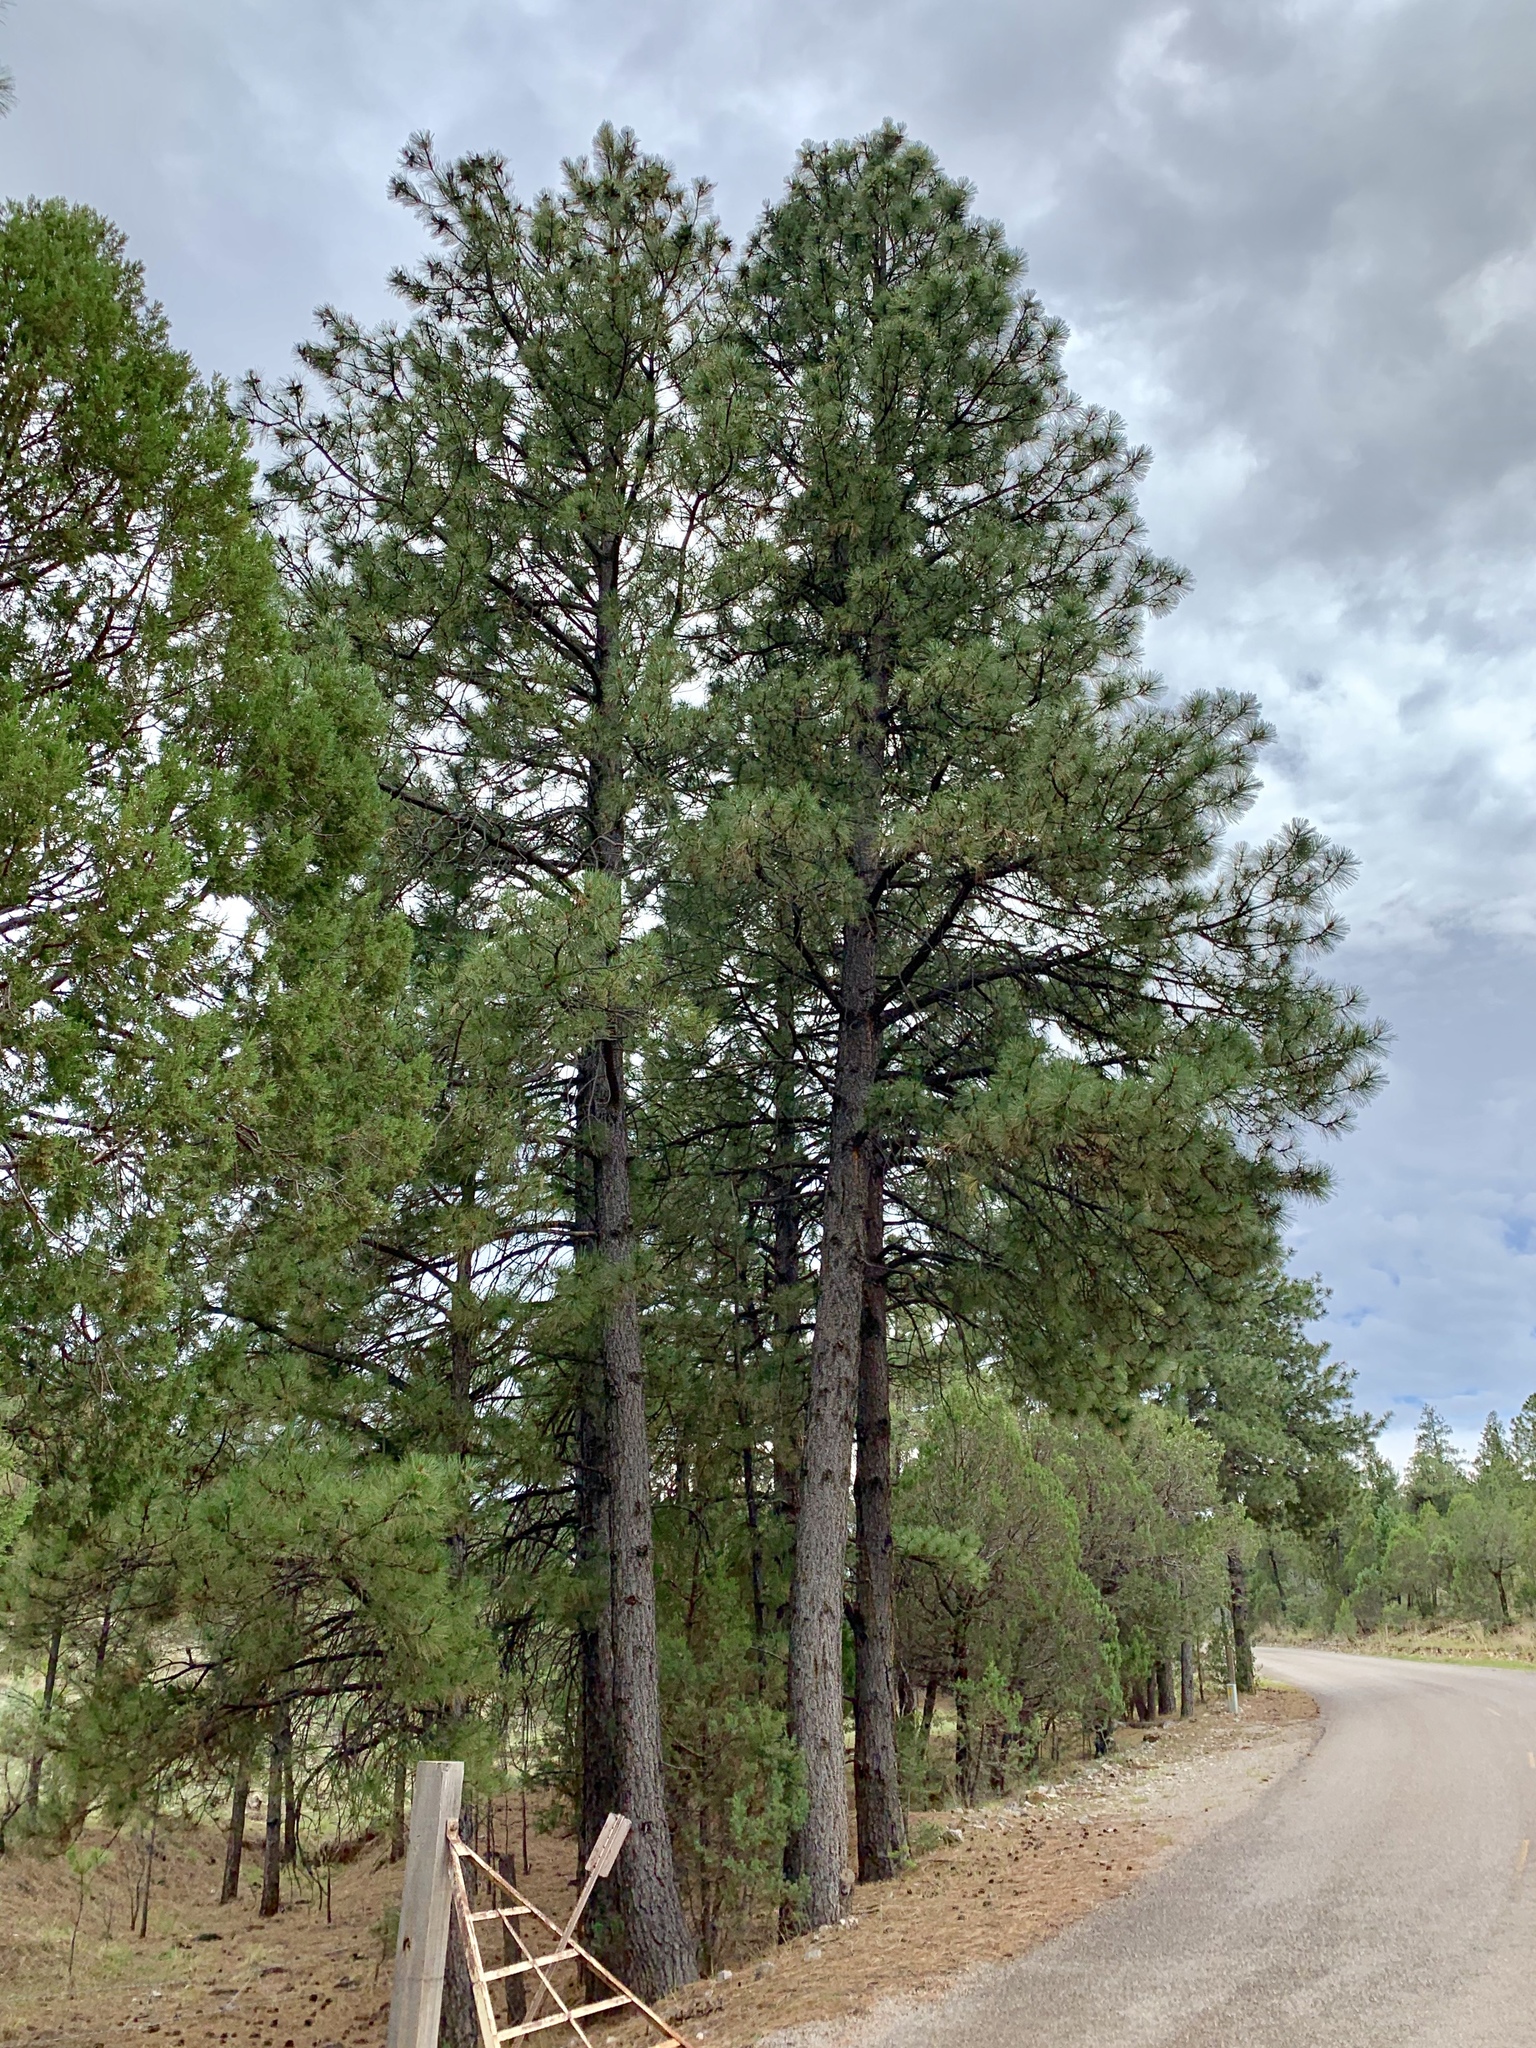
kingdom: Plantae
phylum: Tracheophyta
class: Pinopsida
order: Pinales
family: Pinaceae
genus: Pinus
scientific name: Pinus ponderosa
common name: Western yellow-pine
